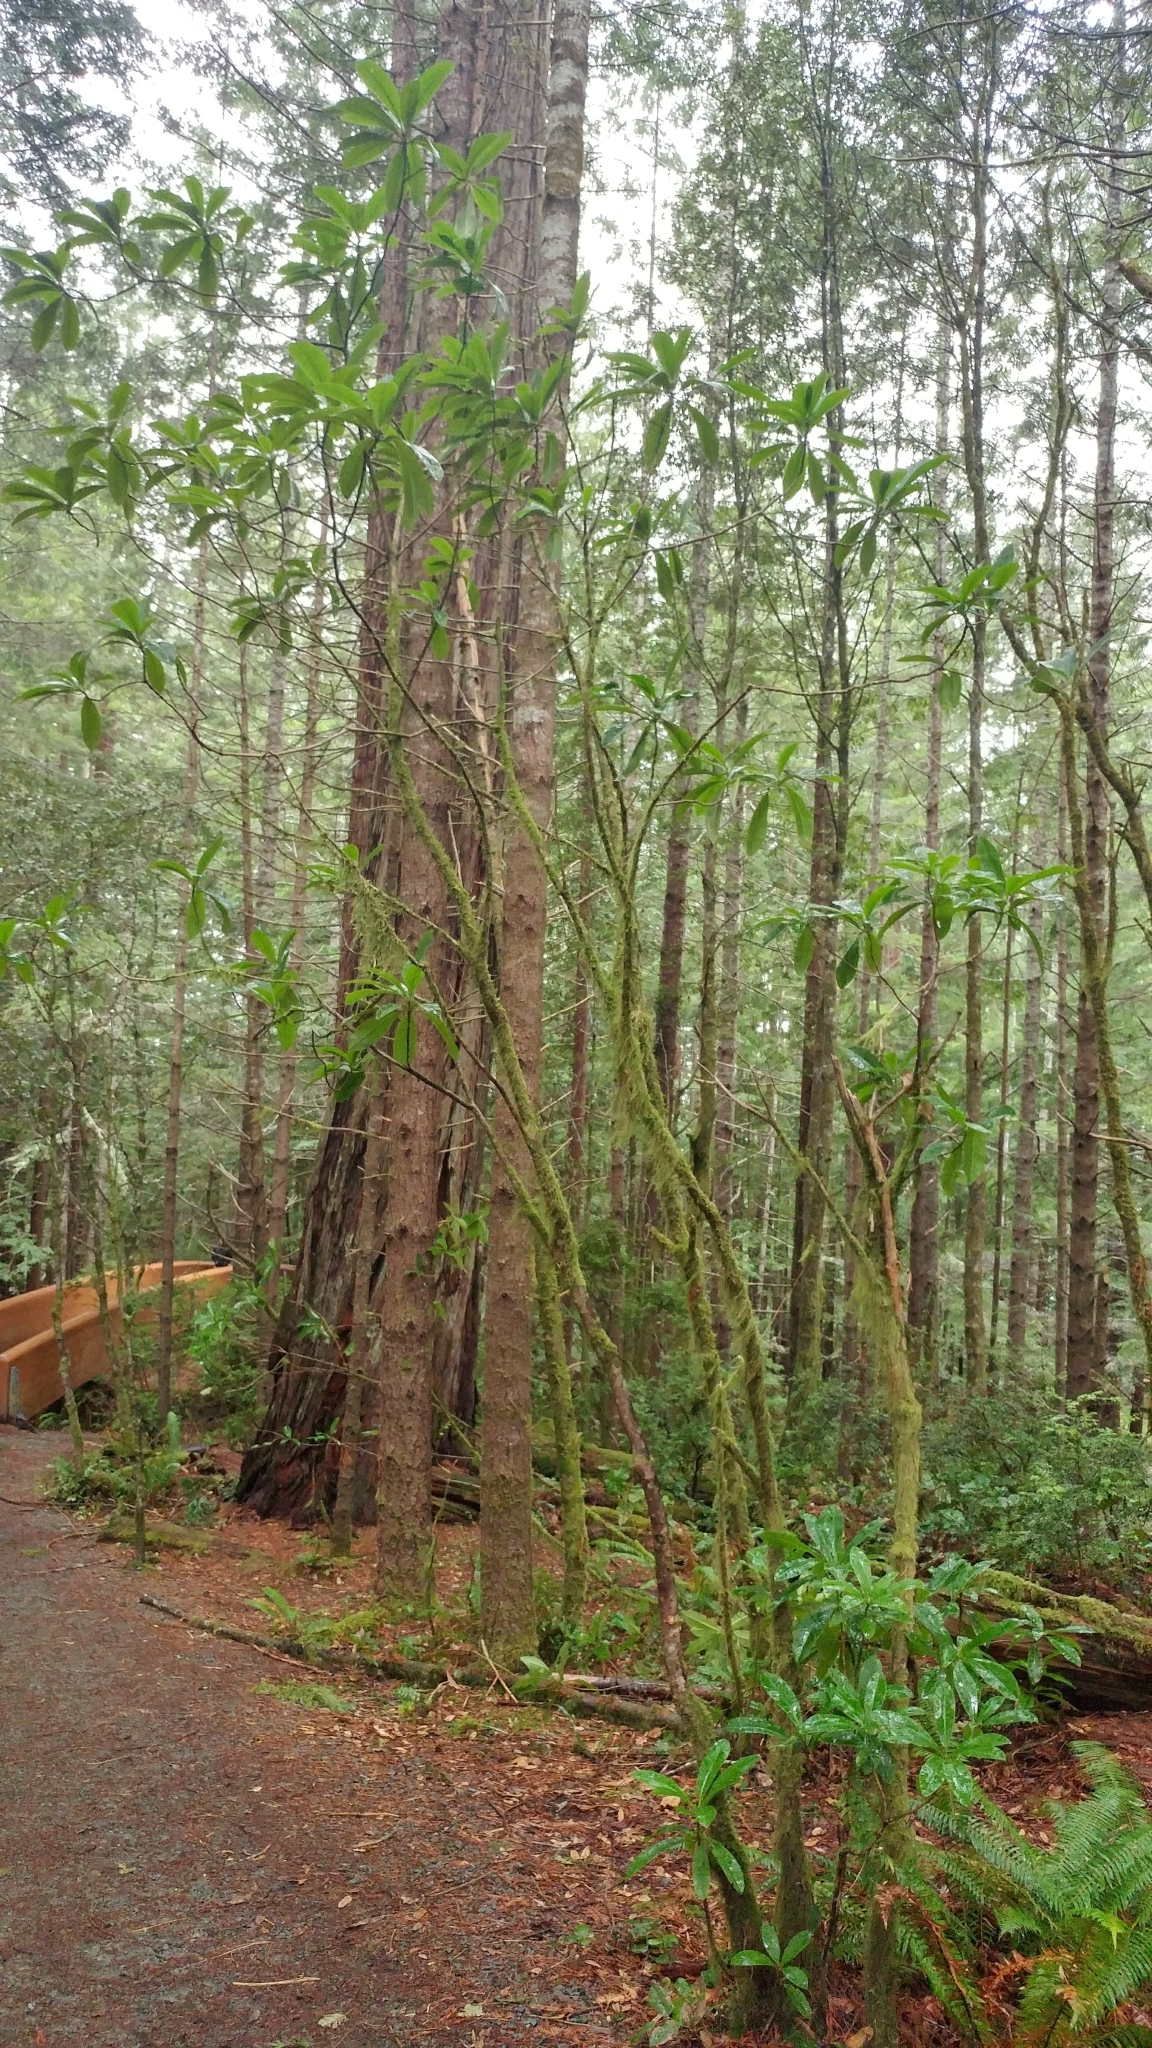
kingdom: Plantae
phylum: Tracheophyta
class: Magnoliopsida
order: Ericales
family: Ericaceae
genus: Rhododendron
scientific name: Rhododendron macrophyllum
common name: California rose bay
